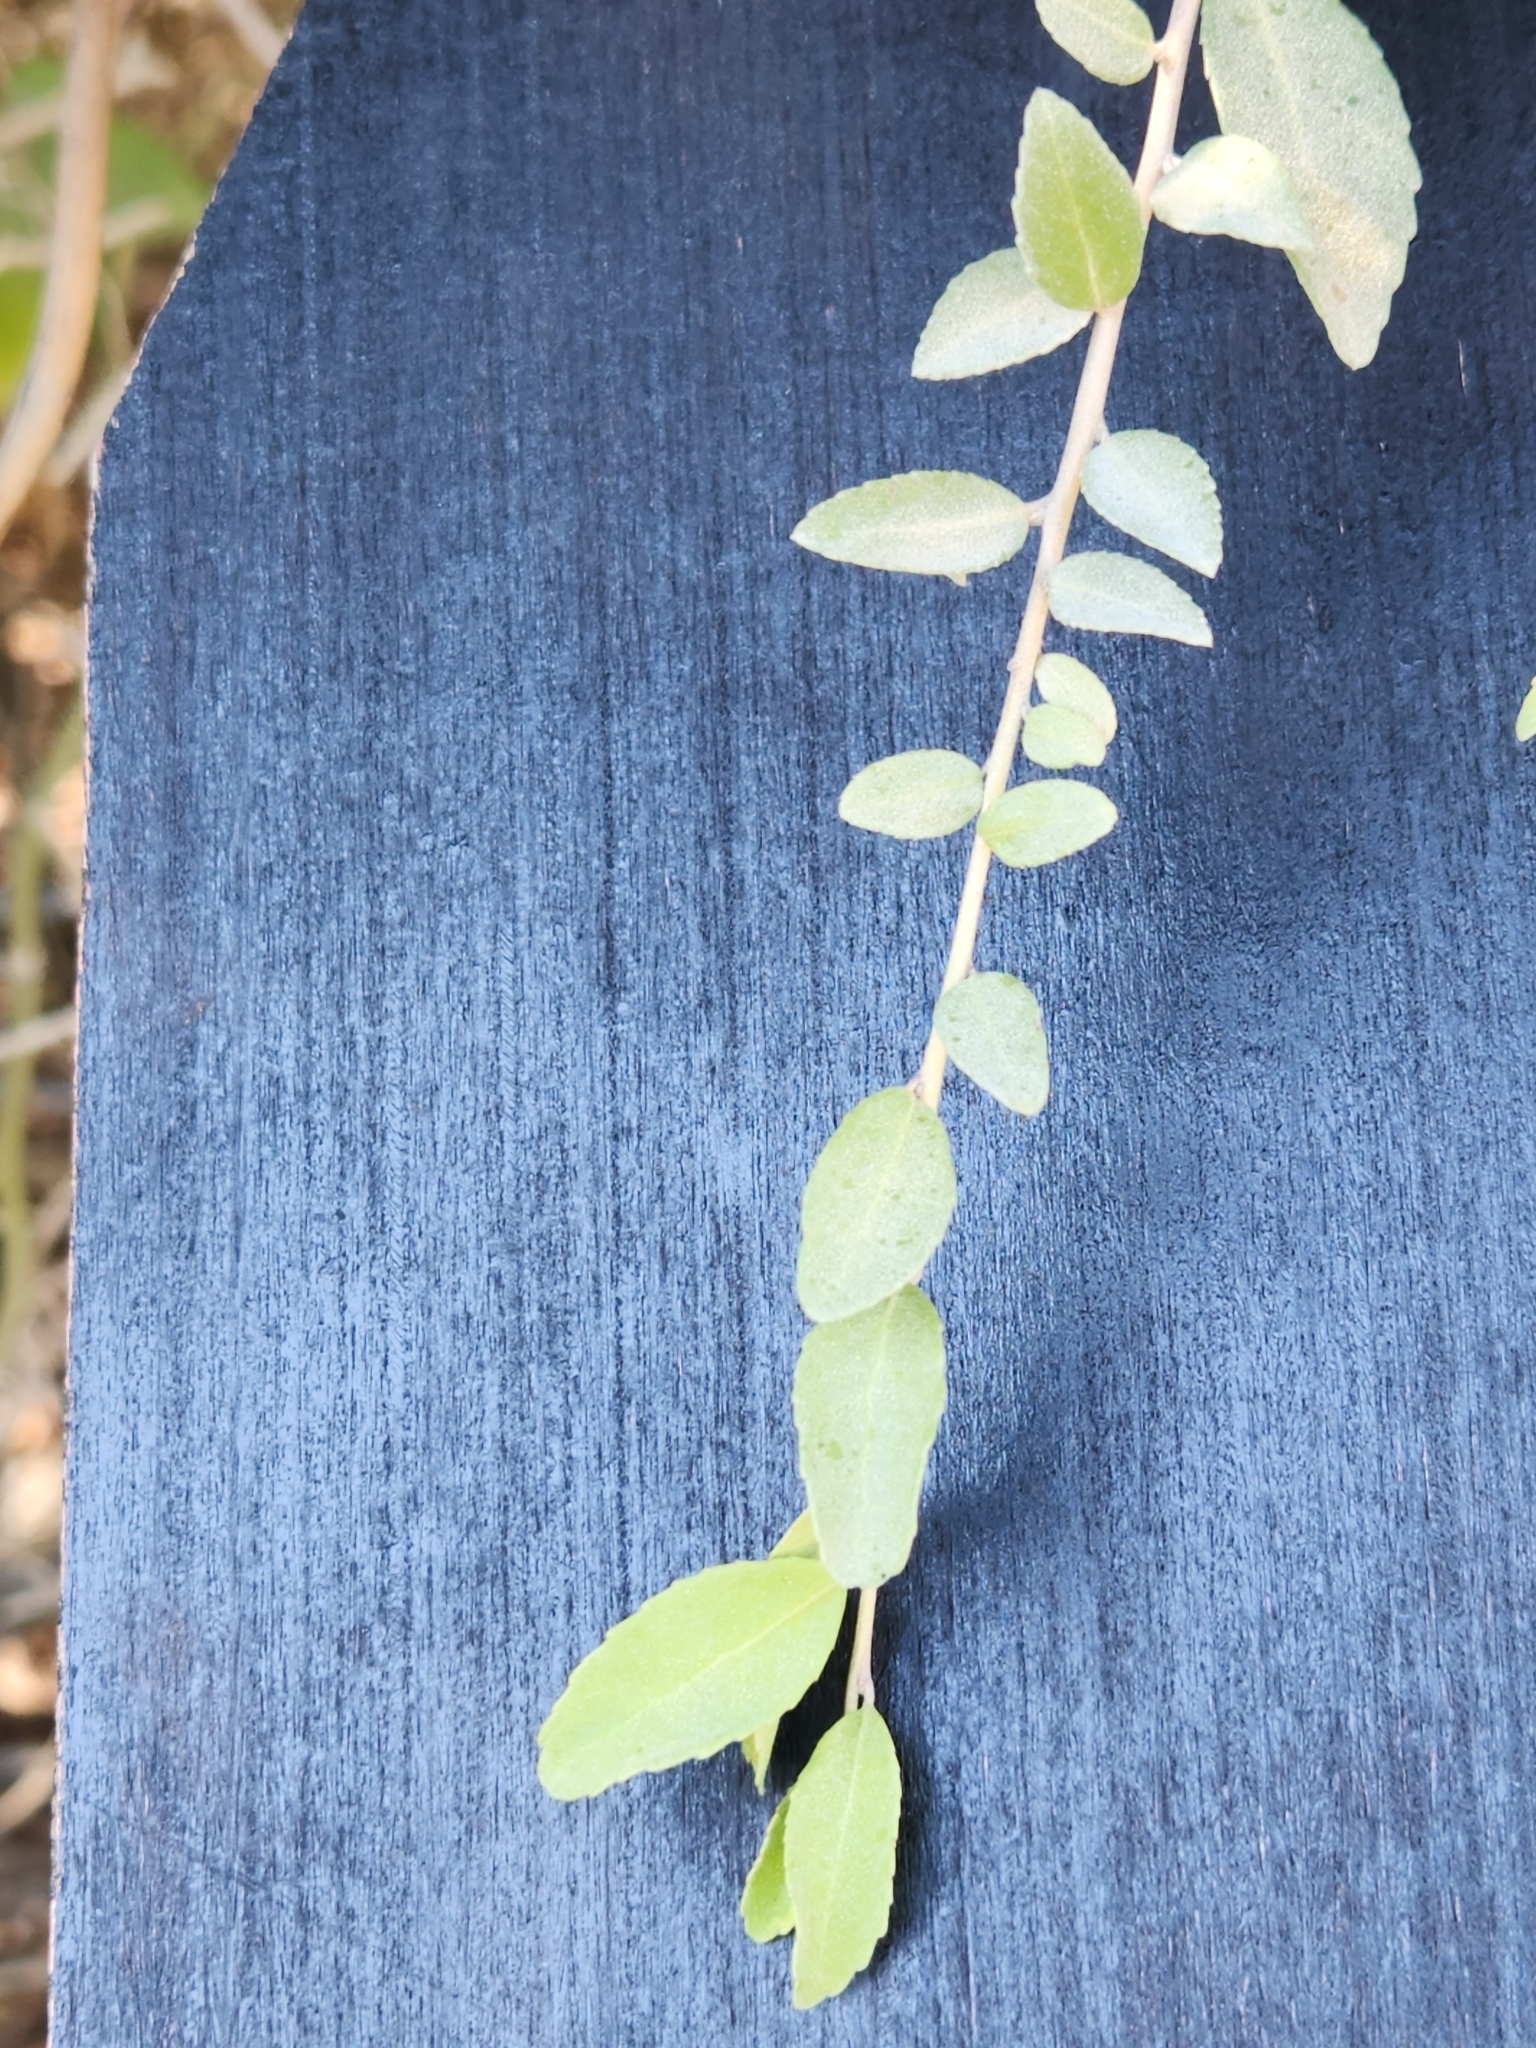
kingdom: Plantae
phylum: Tracheophyta
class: Magnoliopsida
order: Aquifoliales
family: Aquifoliaceae
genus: Ilex
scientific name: Ilex vomitoria
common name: Yaupon holly
